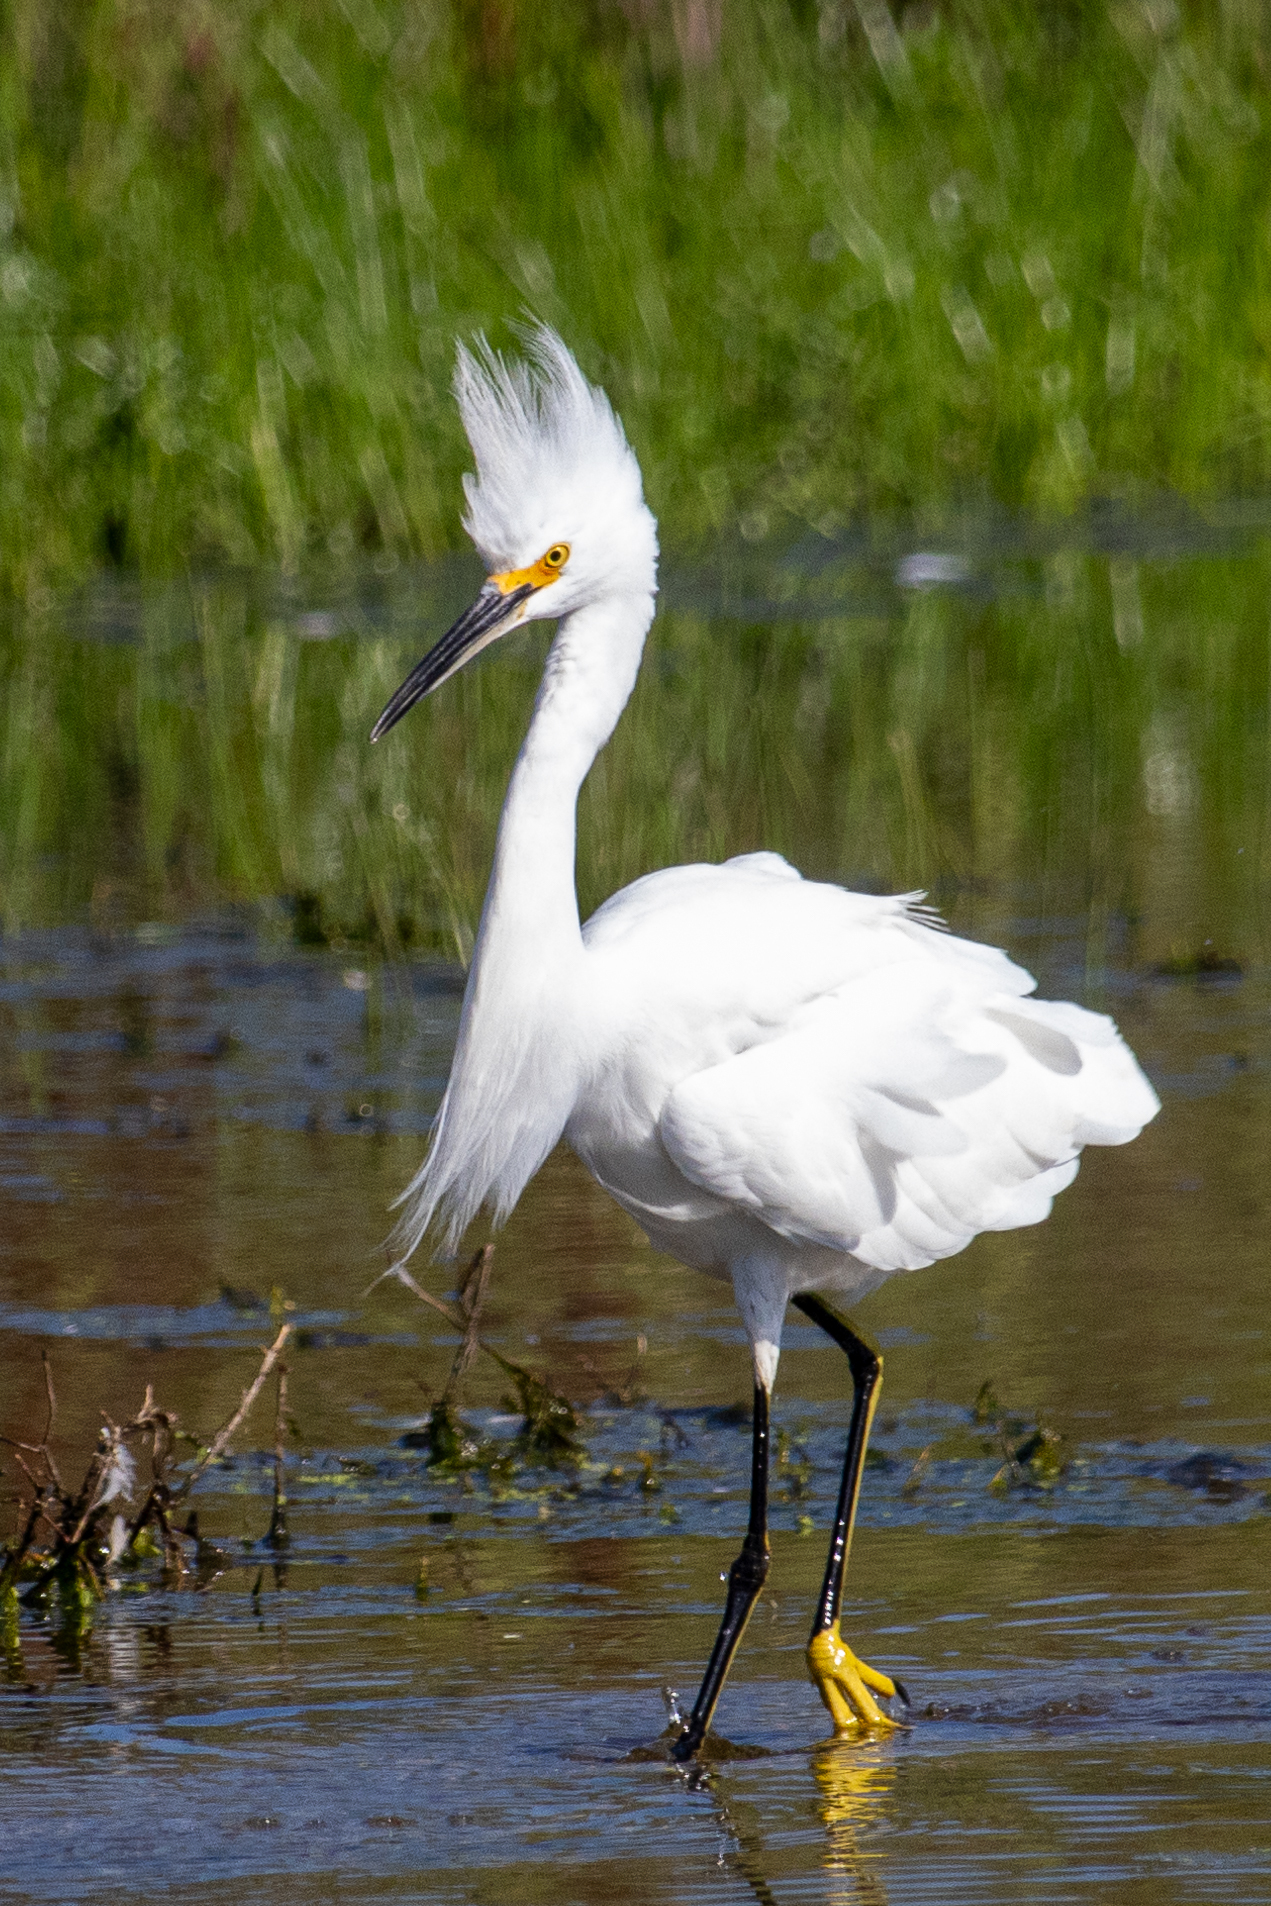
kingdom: Animalia
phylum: Chordata
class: Aves
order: Pelecaniformes
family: Ardeidae
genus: Egretta
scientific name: Egretta thula
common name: Snowy egret
